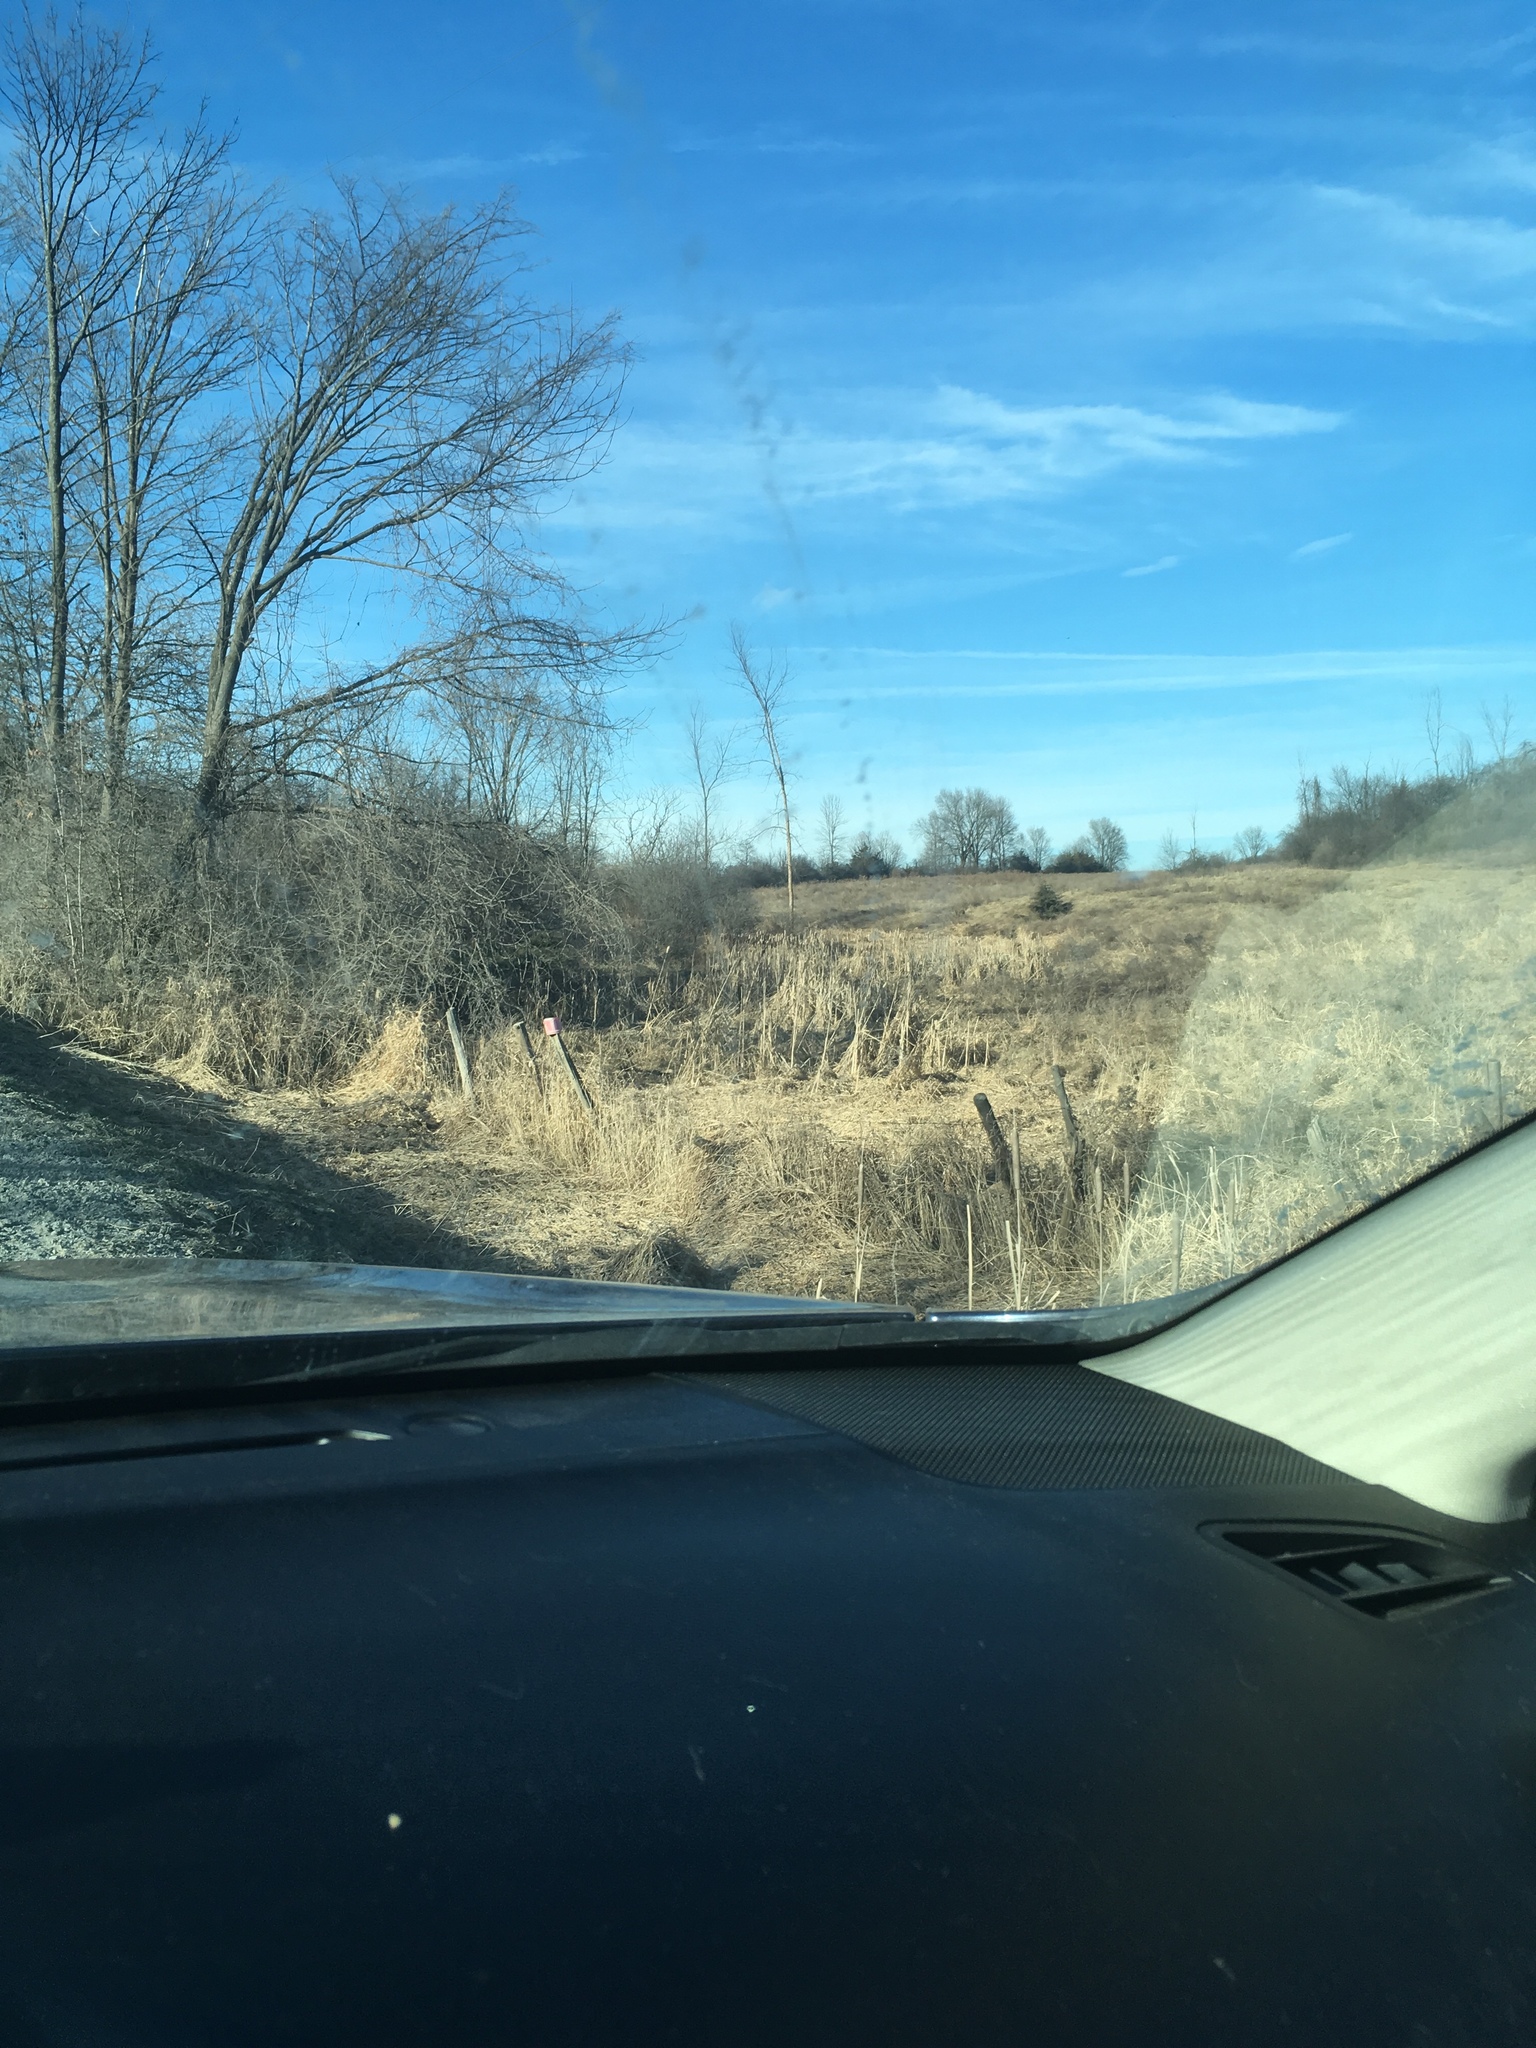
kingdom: Plantae
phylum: Tracheophyta
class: Liliopsida
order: Poales
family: Typhaceae
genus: Typha
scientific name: Typha
